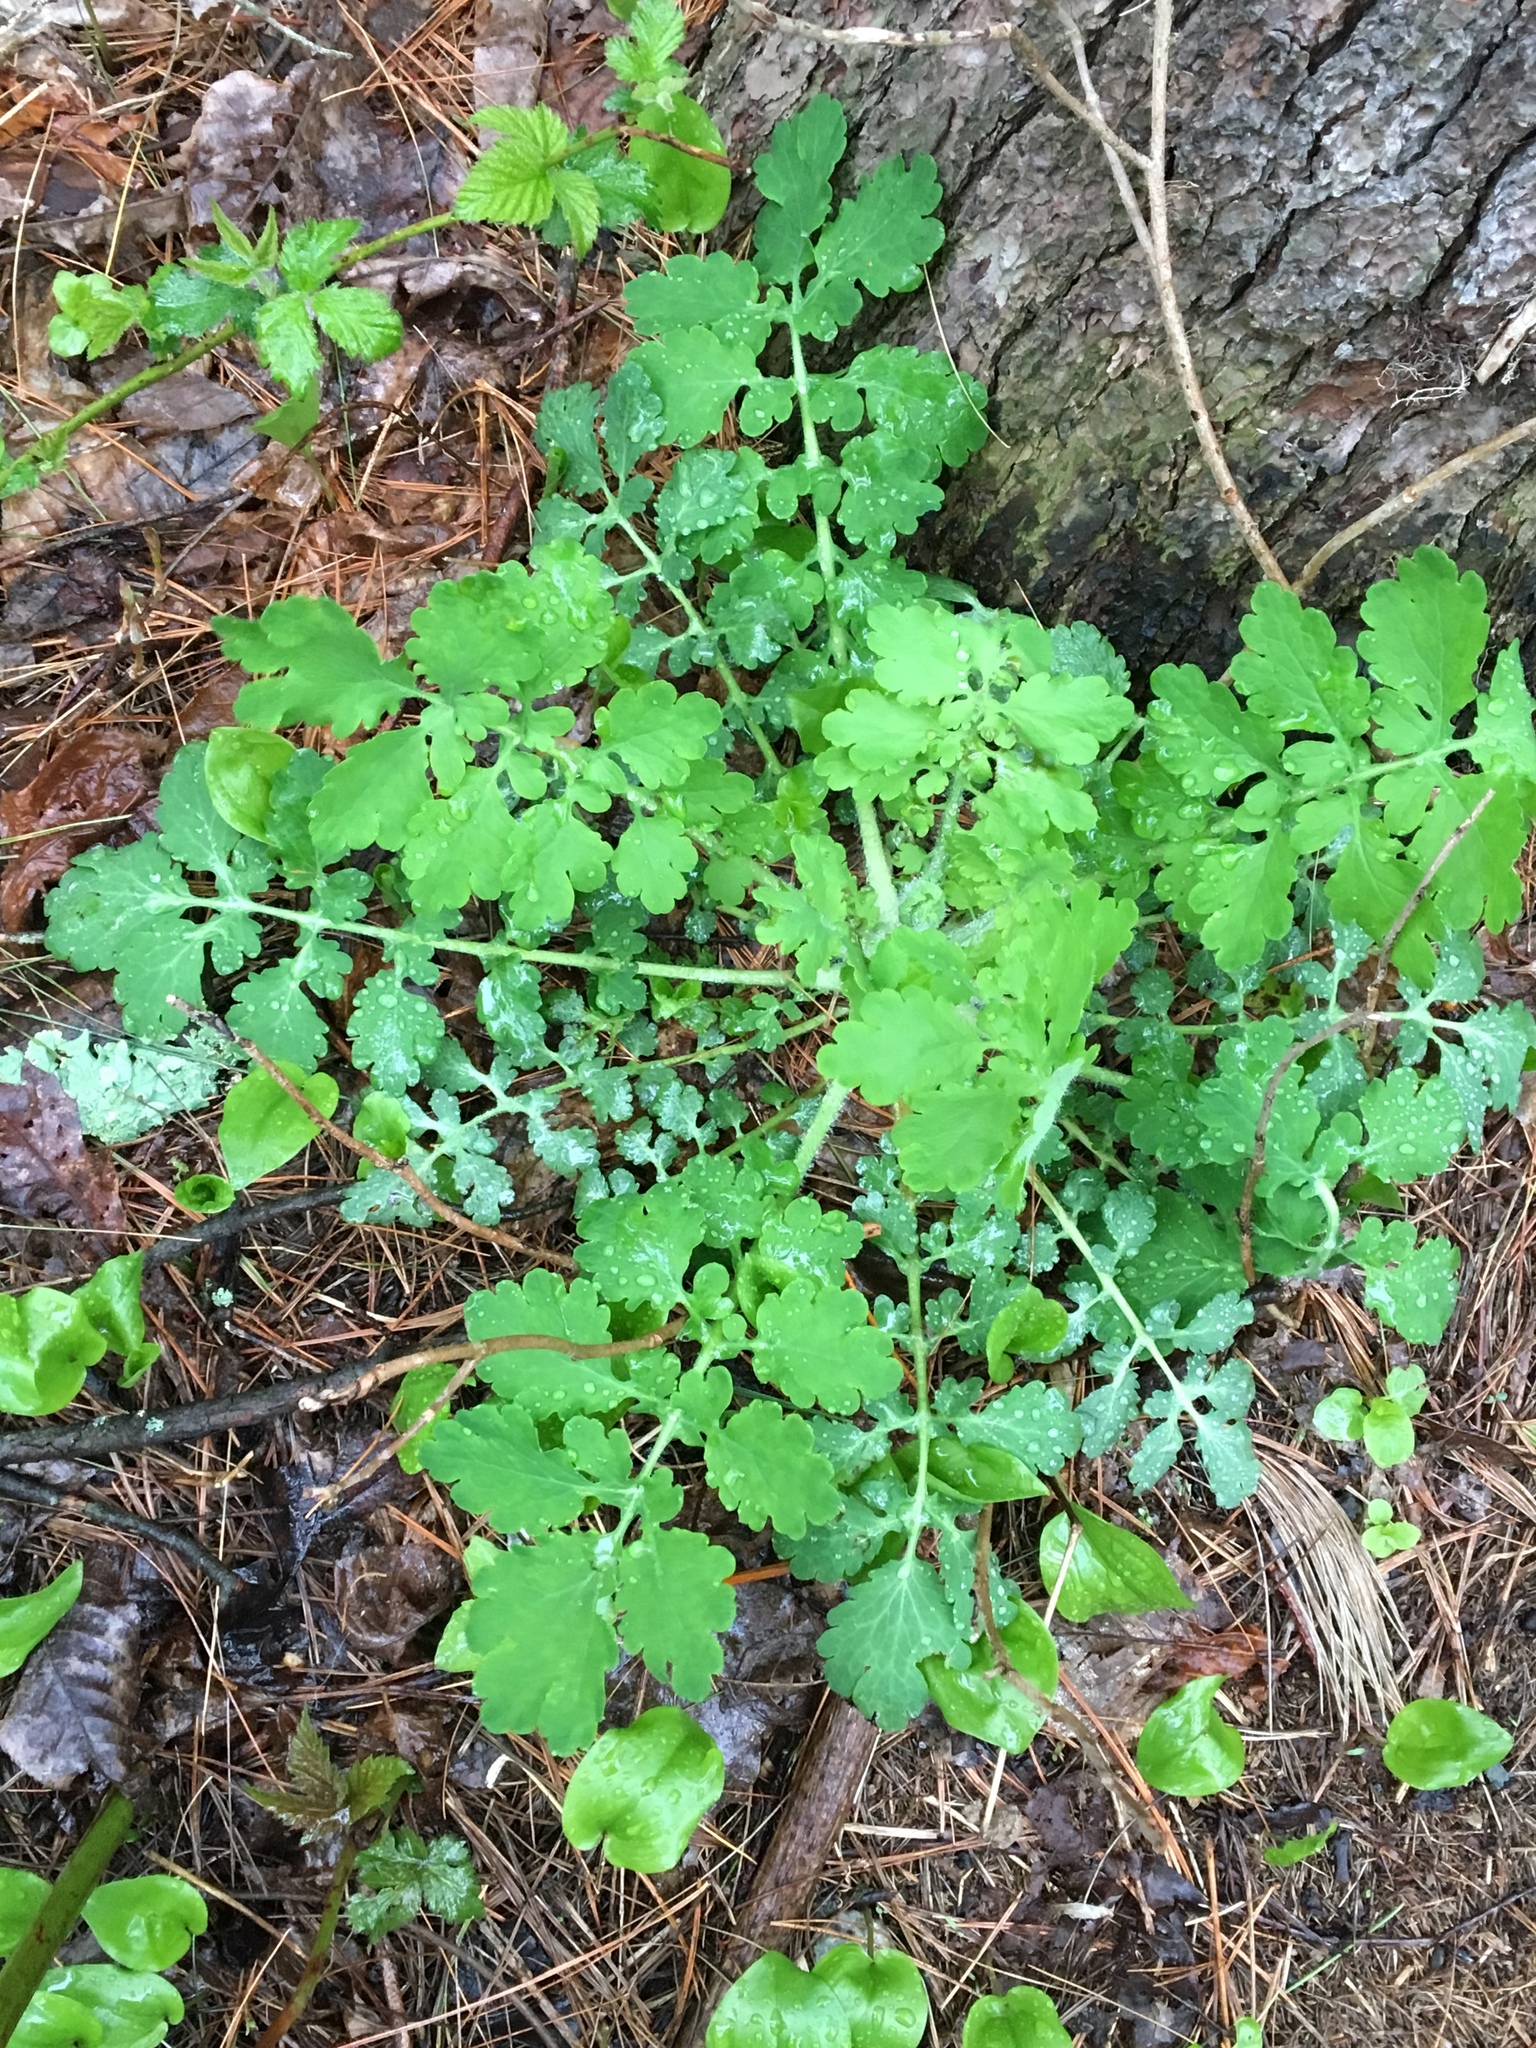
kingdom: Plantae
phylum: Tracheophyta
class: Magnoliopsida
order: Ranunculales
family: Papaveraceae
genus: Chelidonium
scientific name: Chelidonium majus
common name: Greater celandine
